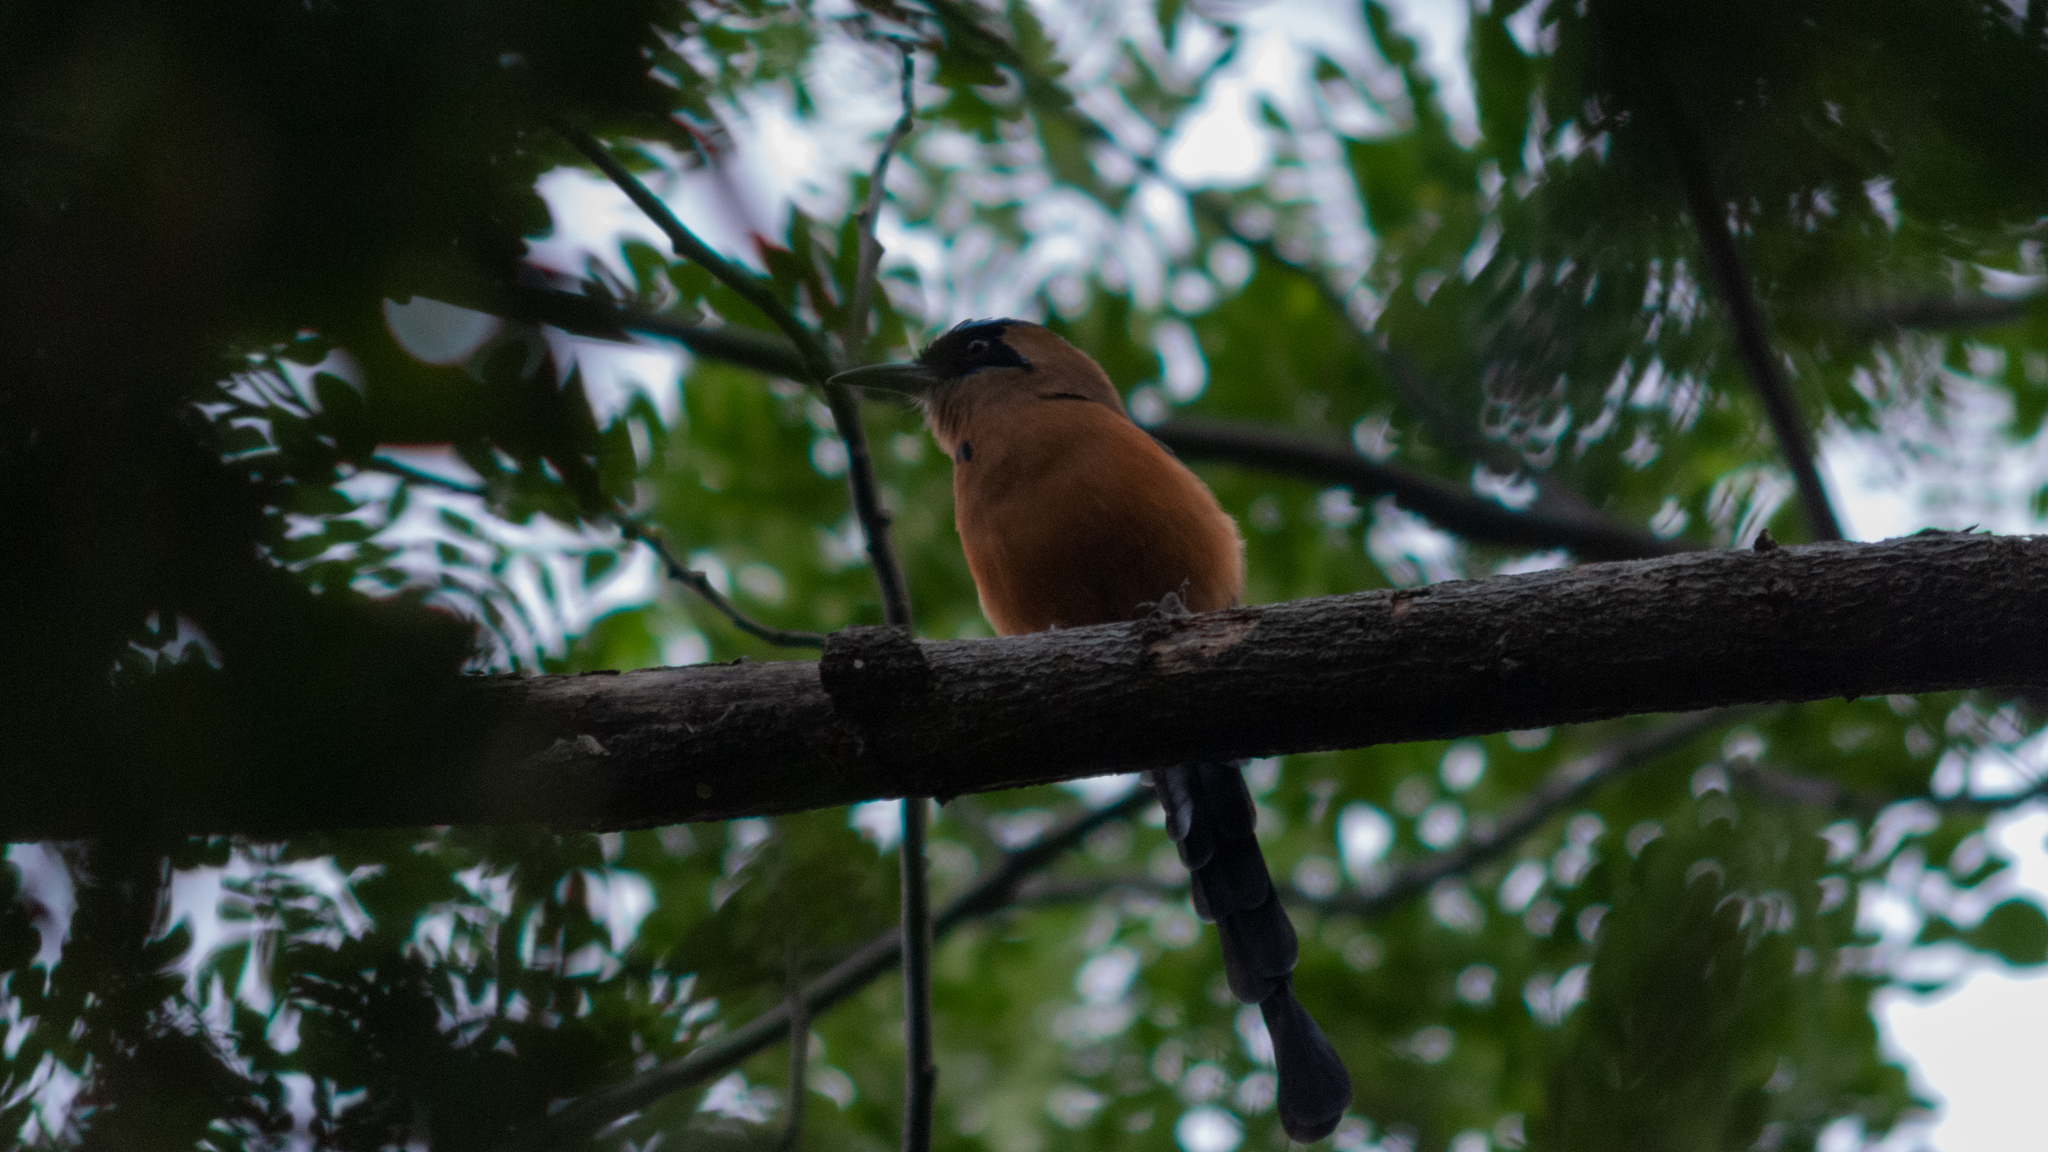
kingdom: Animalia
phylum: Chordata
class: Aves
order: Coraciiformes
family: Momotidae
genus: Momotus
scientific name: Momotus subrufescens
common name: Whooping motmot
